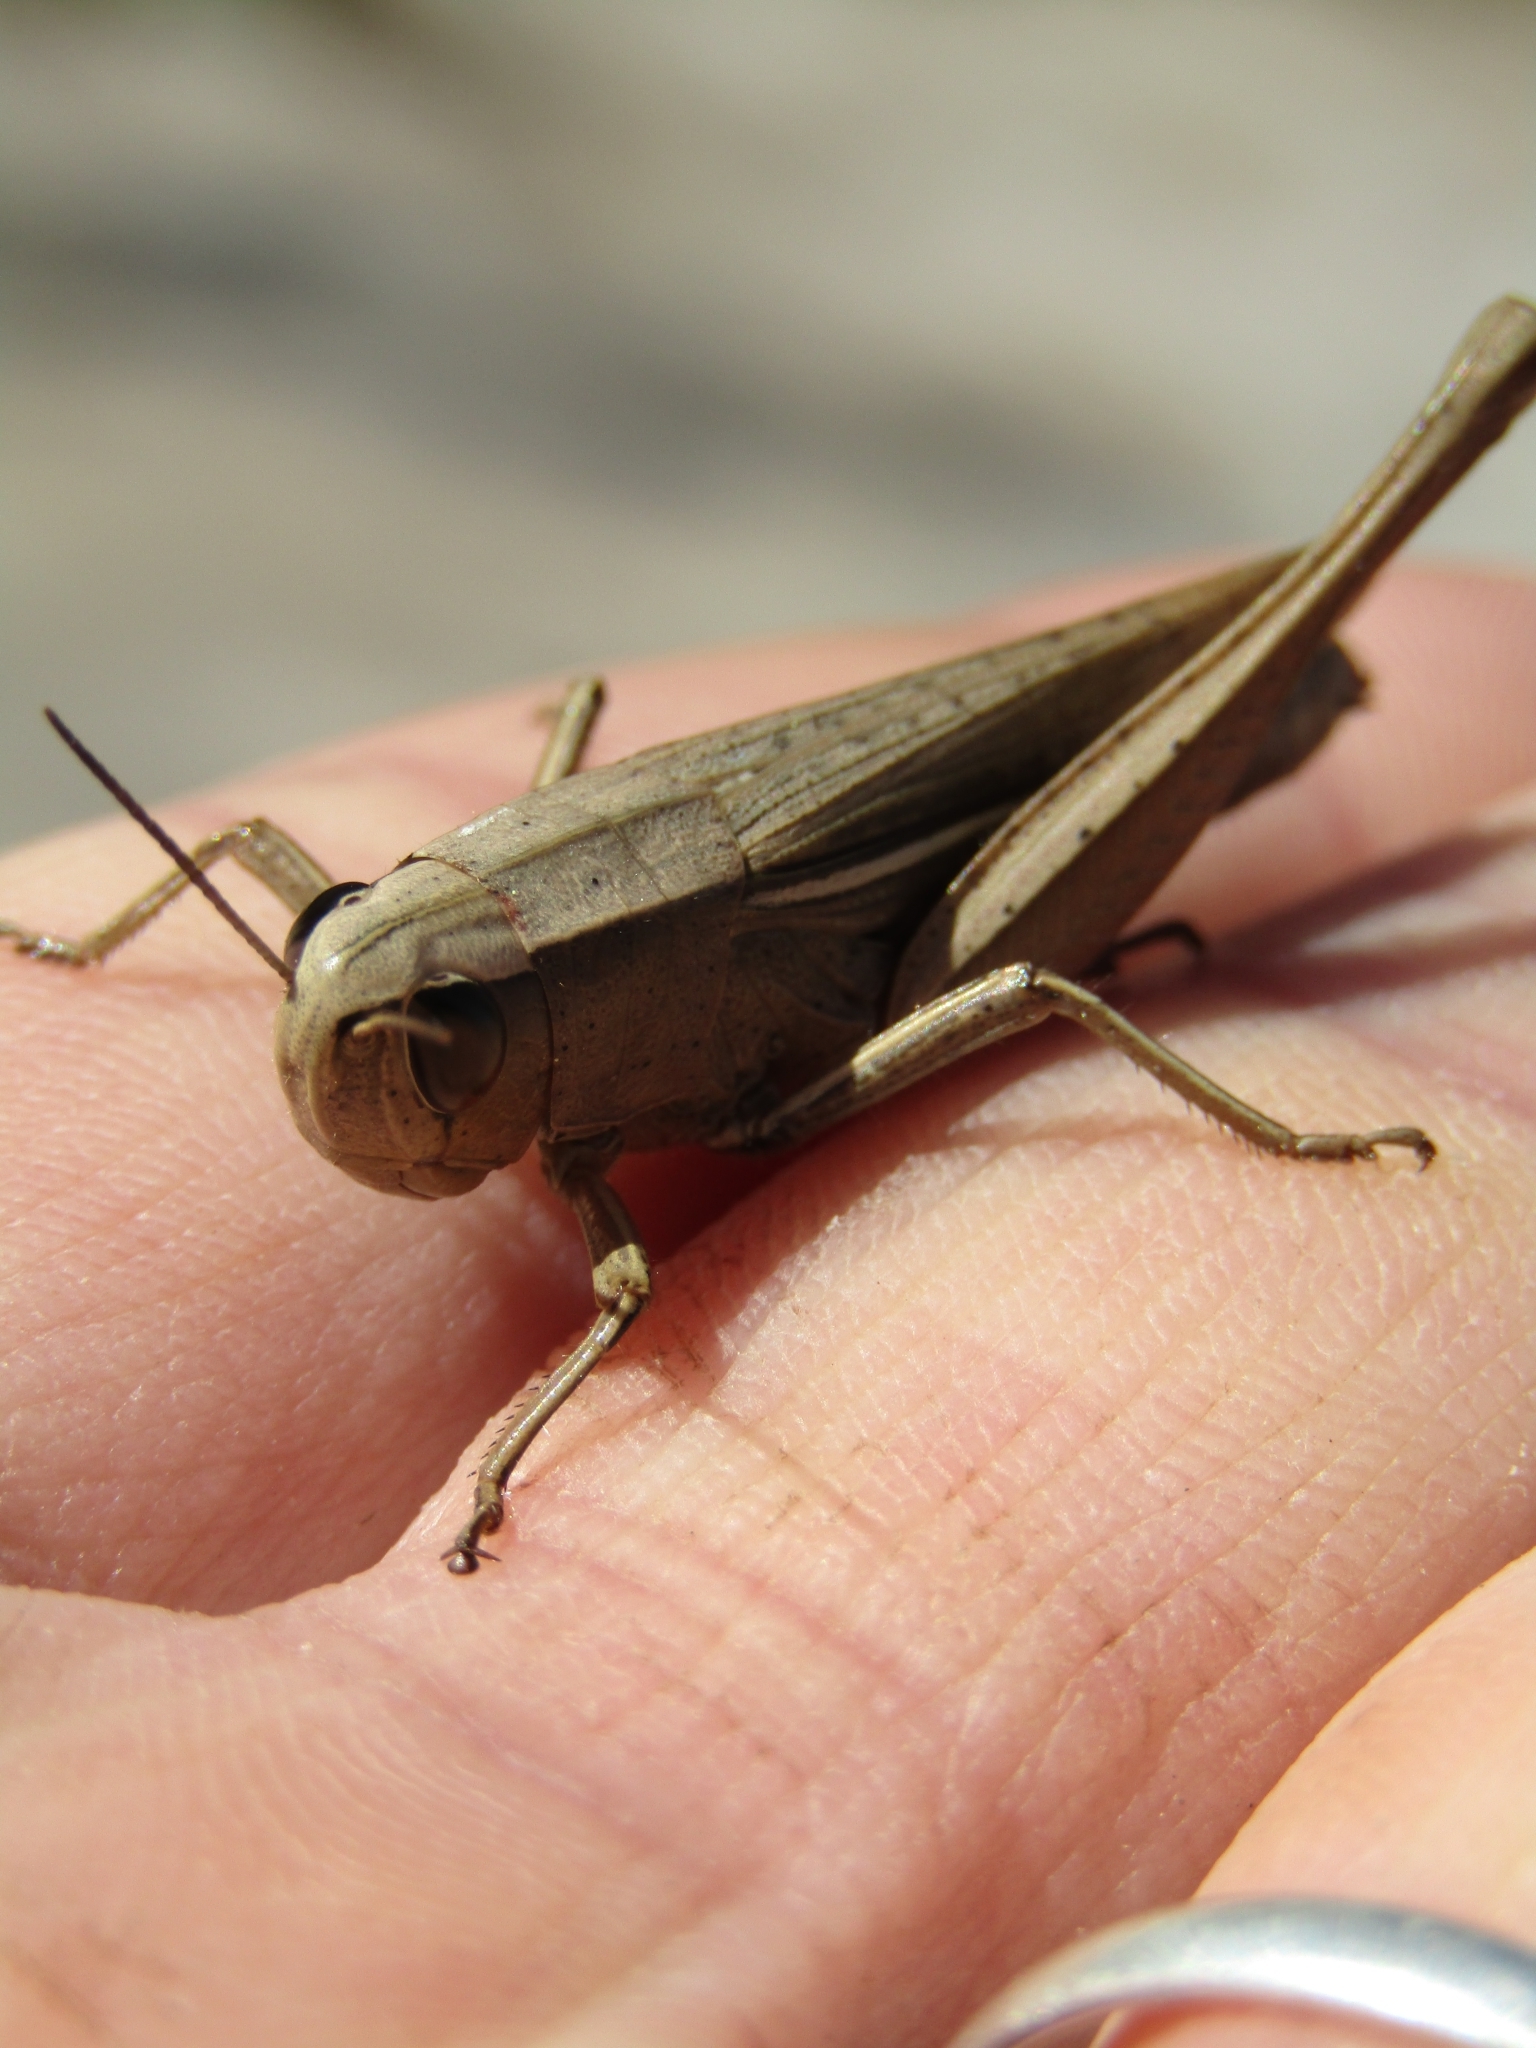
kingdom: Animalia
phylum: Arthropoda
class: Insecta
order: Orthoptera
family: Acrididae
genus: Amblytropidia
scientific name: Amblytropidia australis
